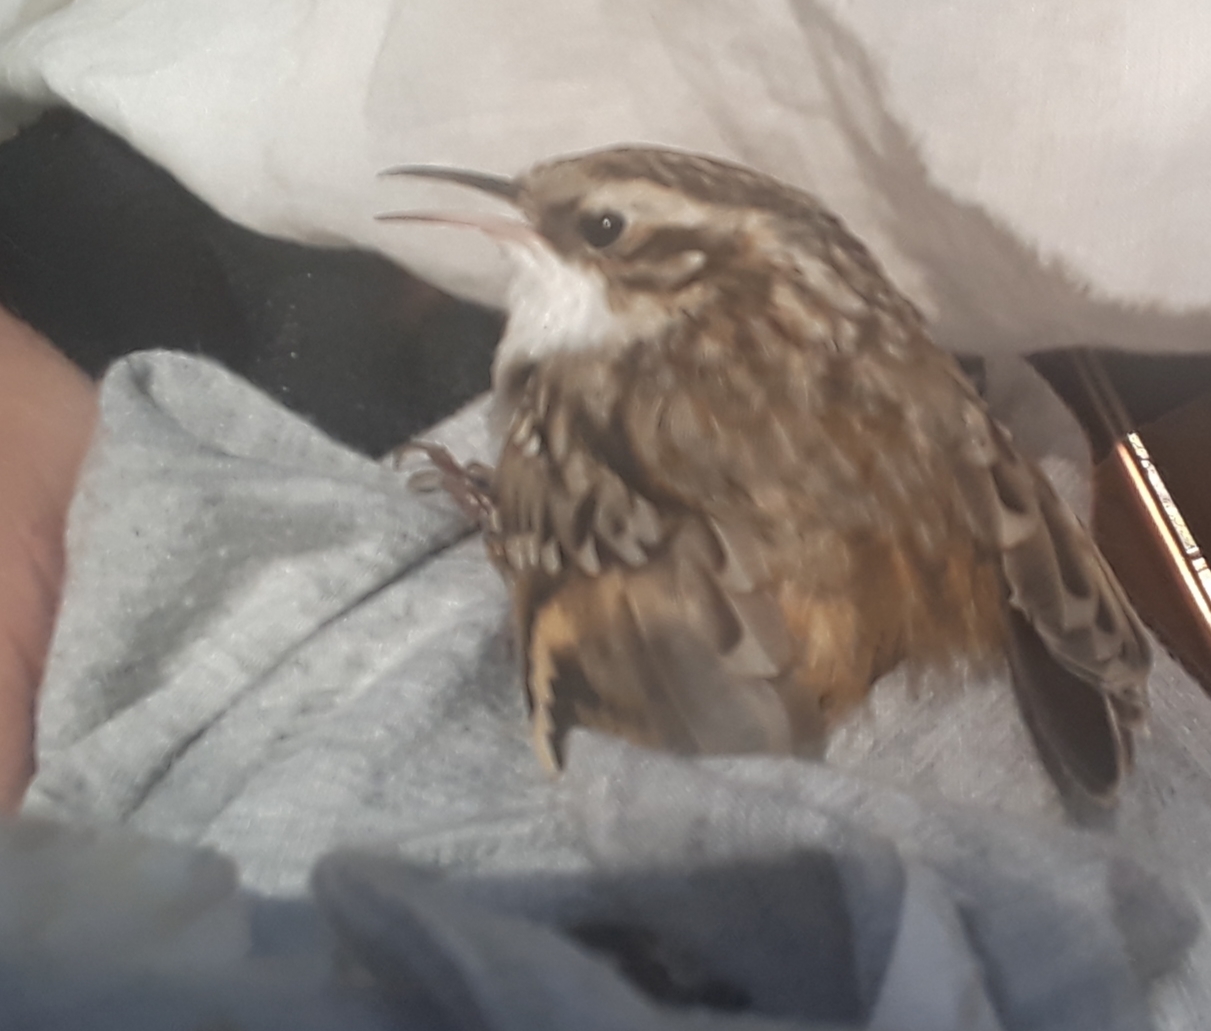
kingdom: Animalia
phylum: Chordata
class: Aves
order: Passeriformes
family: Certhiidae
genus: Certhia
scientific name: Certhia familiaris
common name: Eurasian treecreeper
